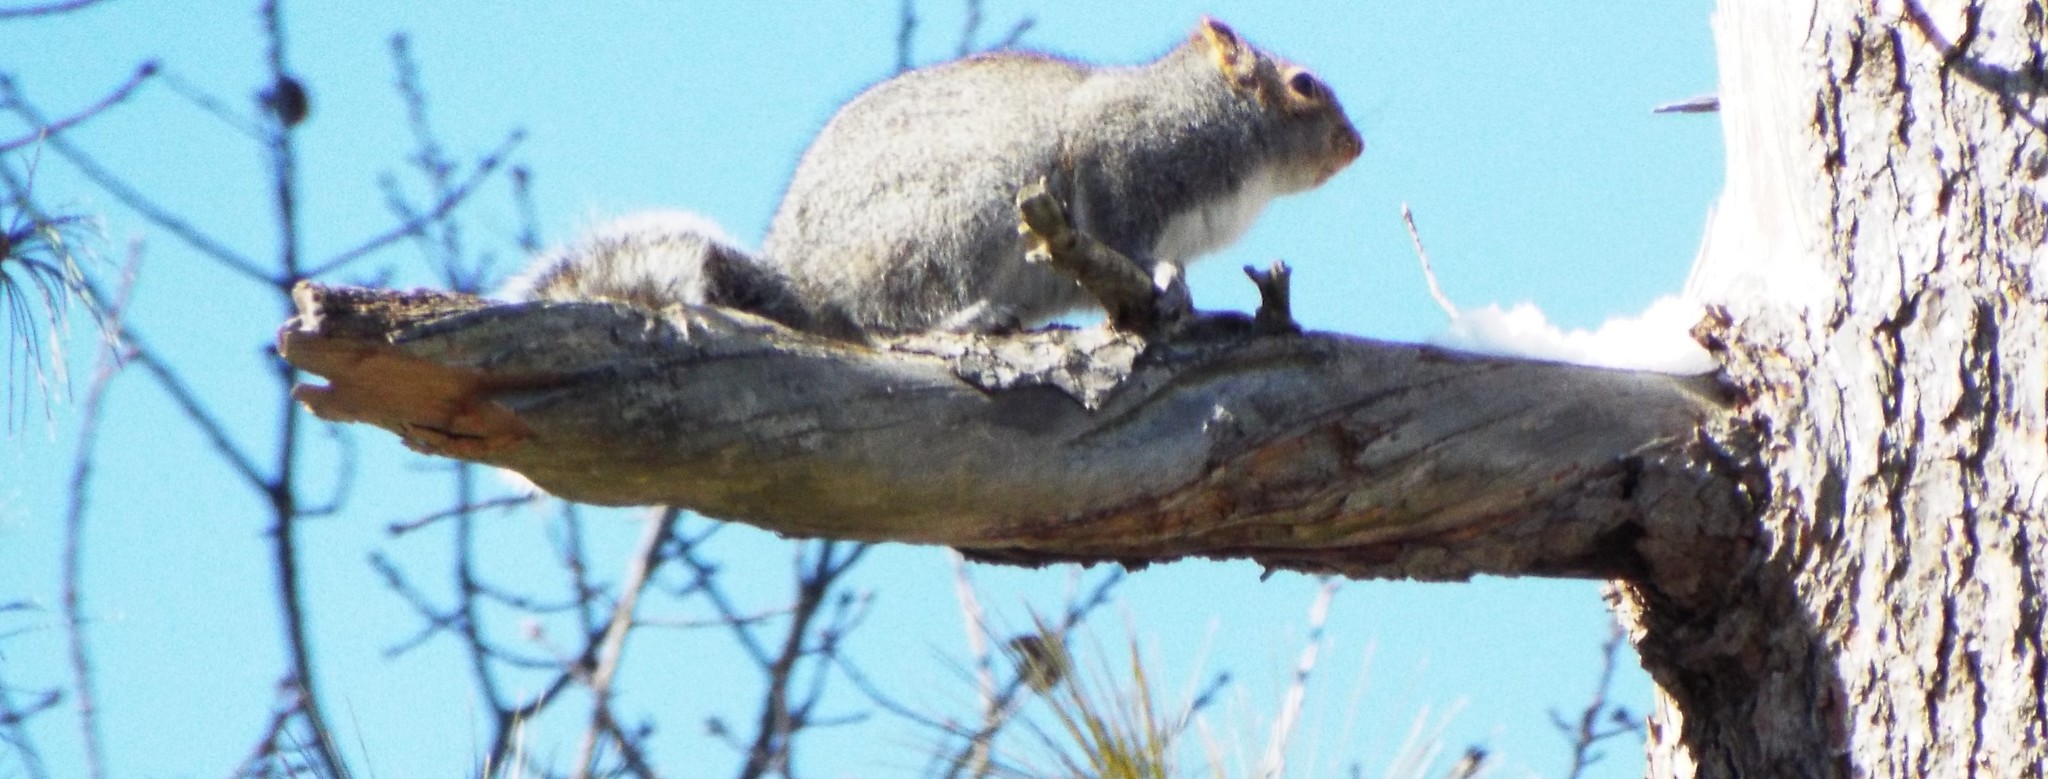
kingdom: Animalia
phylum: Chordata
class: Mammalia
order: Rodentia
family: Sciuridae
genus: Sciurus
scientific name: Sciurus carolinensis
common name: Eastern gray squirrel
